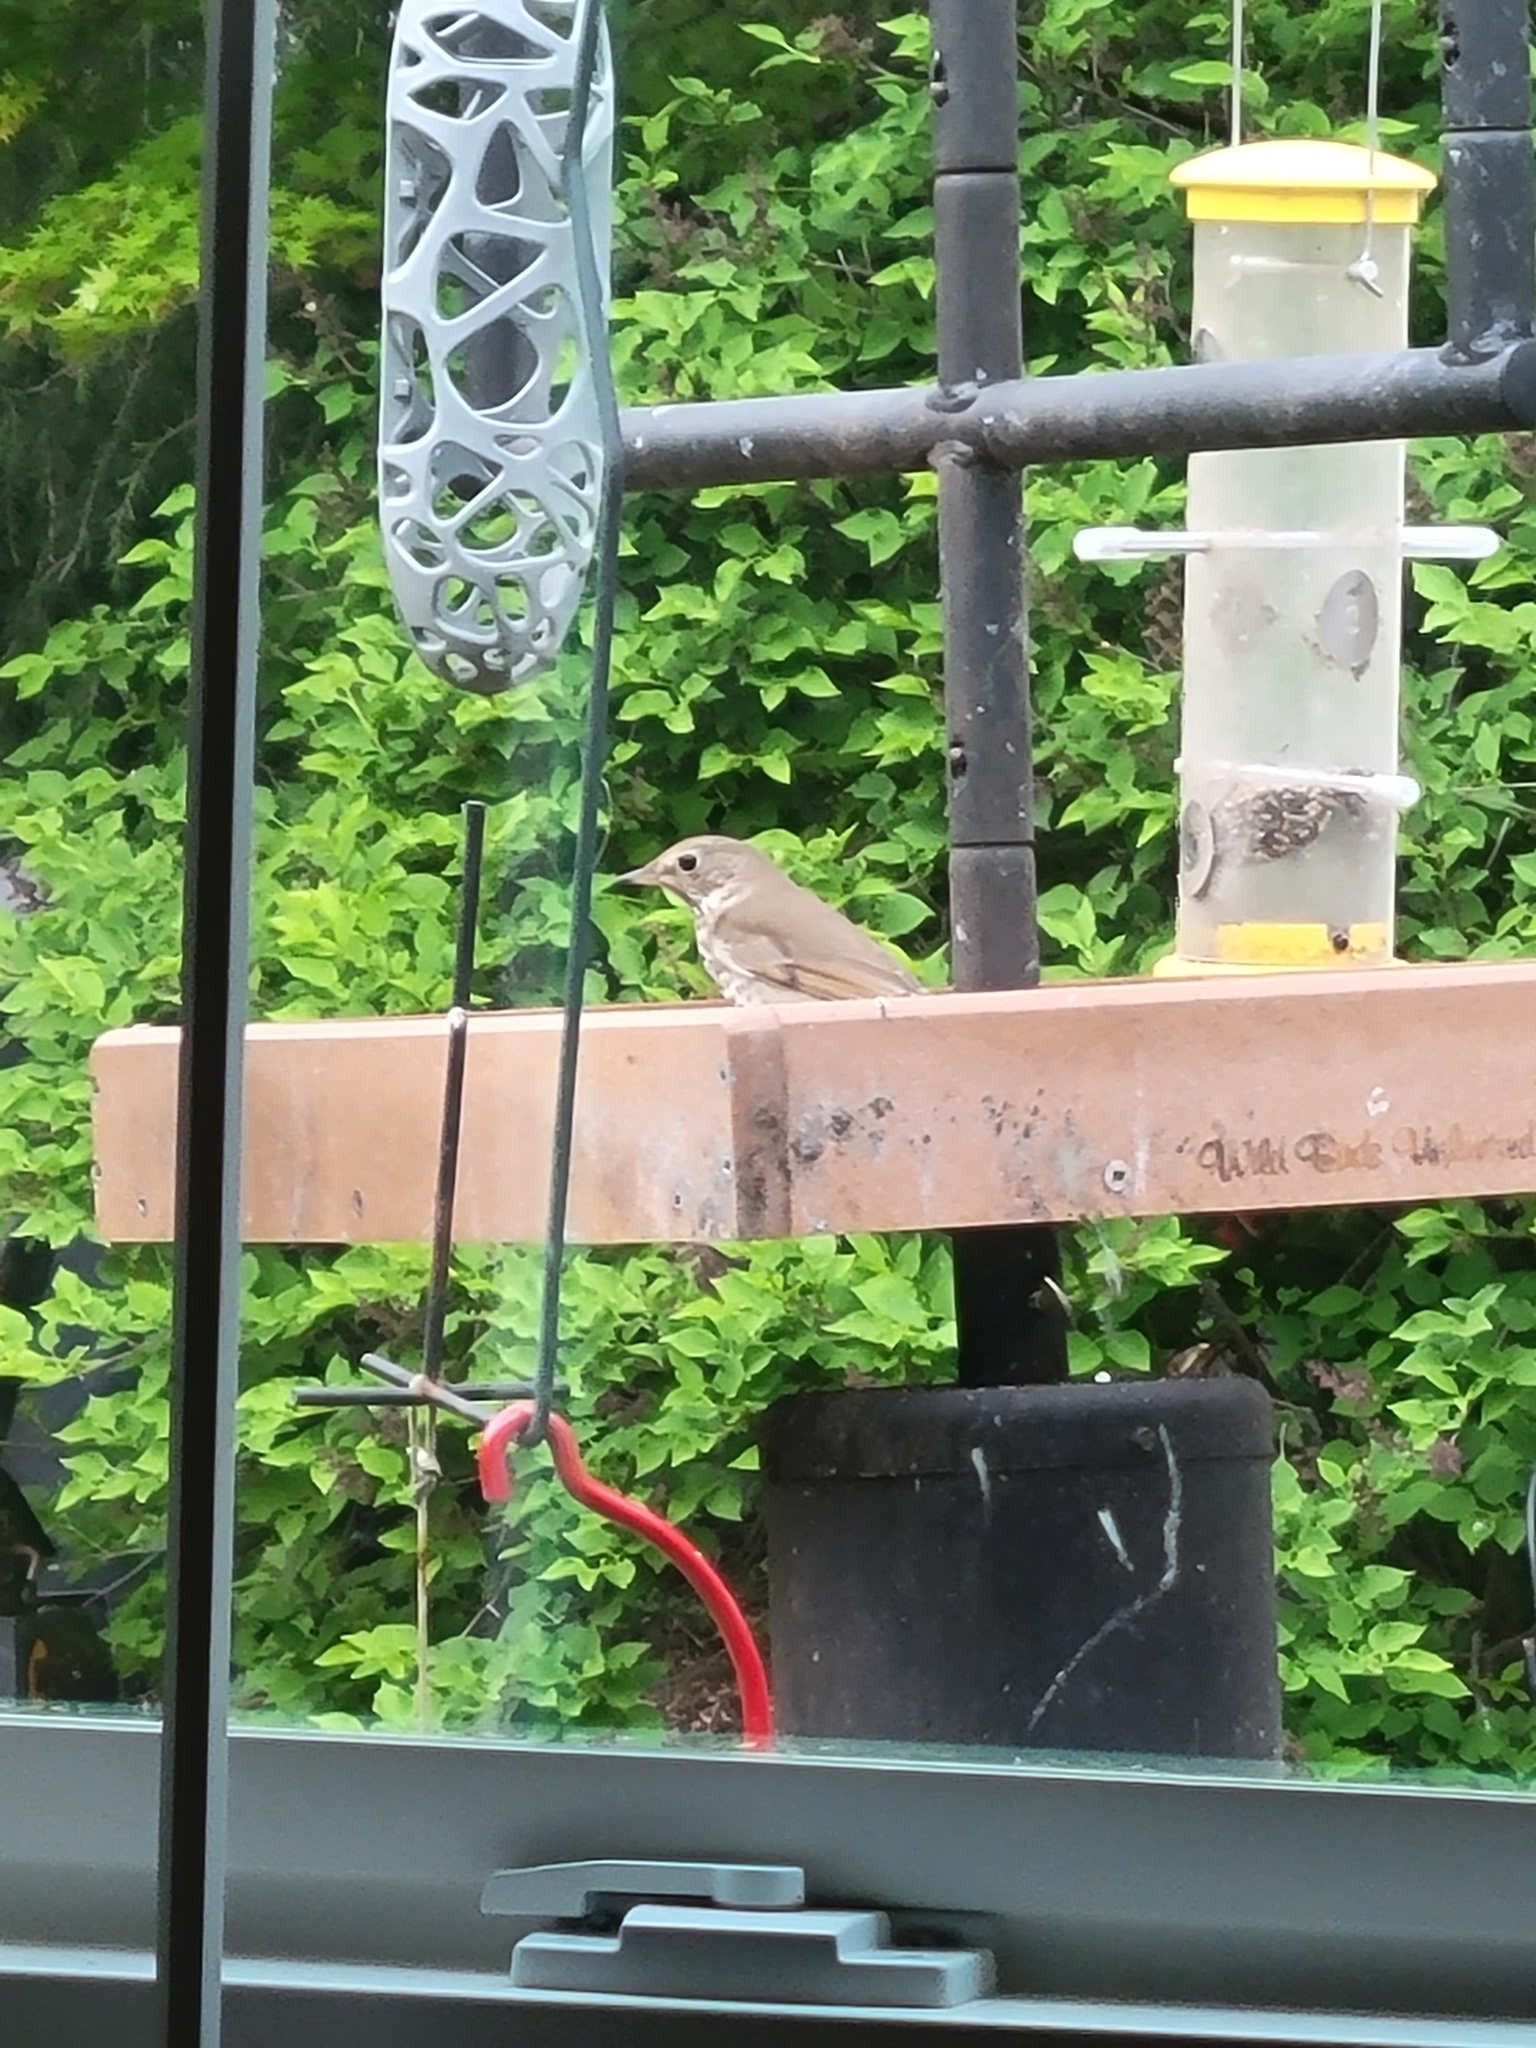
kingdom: Animalia
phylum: Chordata
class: Aves
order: Passeriformes
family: Turdidae
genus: Catharus
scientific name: Catharus guttatus
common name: Hermit thrush
